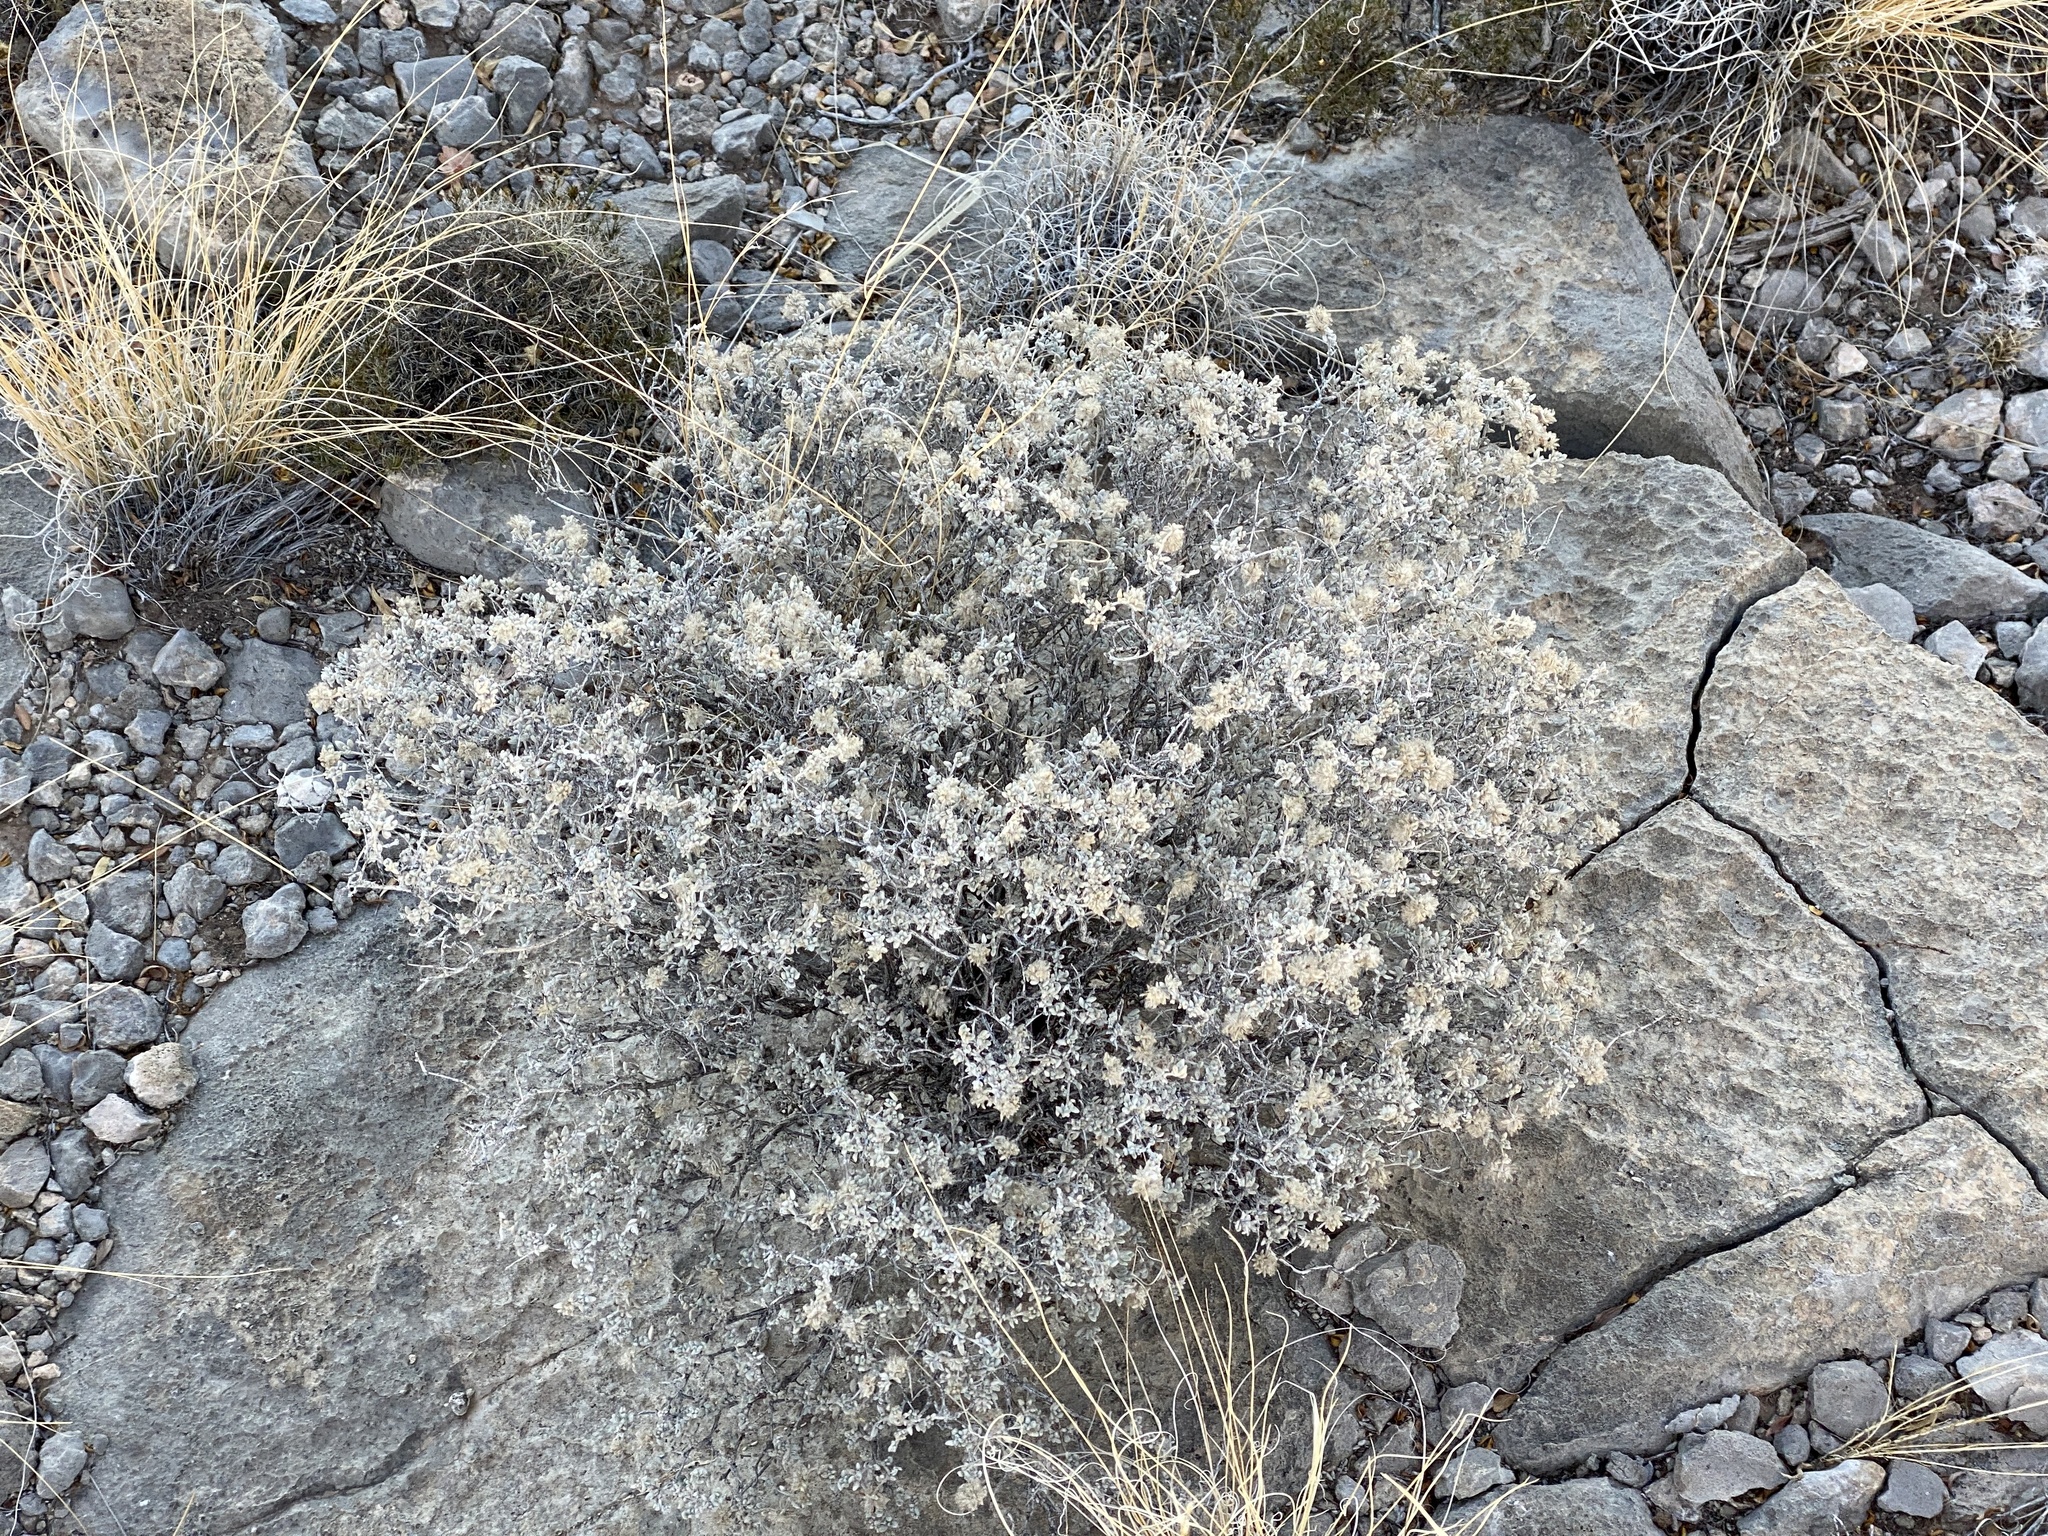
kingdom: Plantae
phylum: Tracheophyta
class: Magnoliopsida
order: Boraginales
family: Ehretiaceae
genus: Tiquilia
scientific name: Tiquilia greggii
